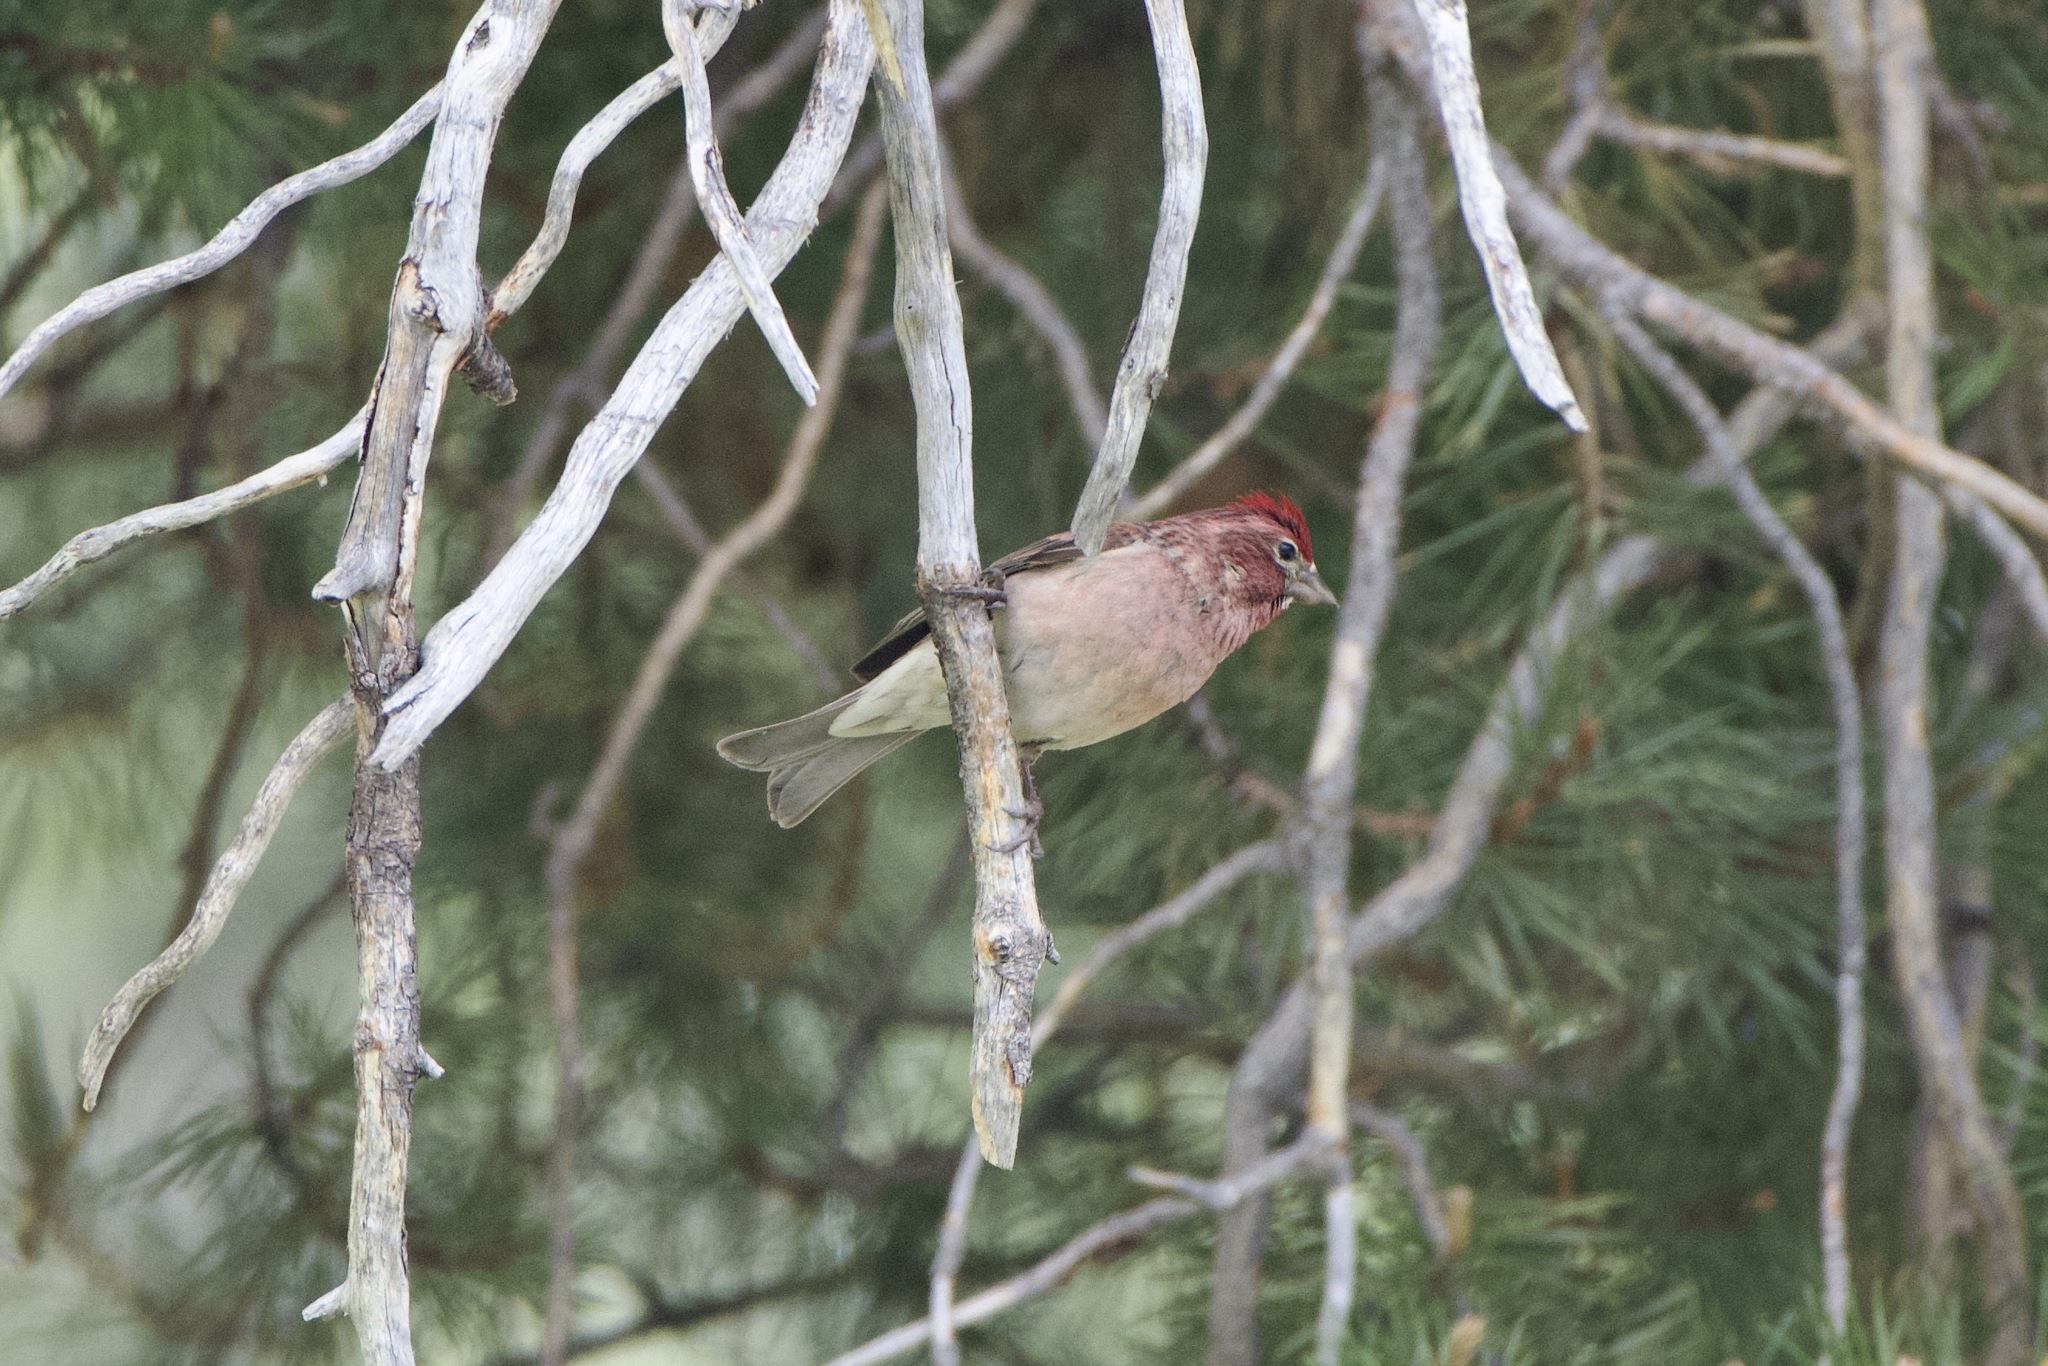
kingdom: Animalia
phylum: Chordata
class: Aves
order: Passeriformes
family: Fringillidae
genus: Haemorhous
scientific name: Haemorhous cassinii
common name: Cassin's finch
